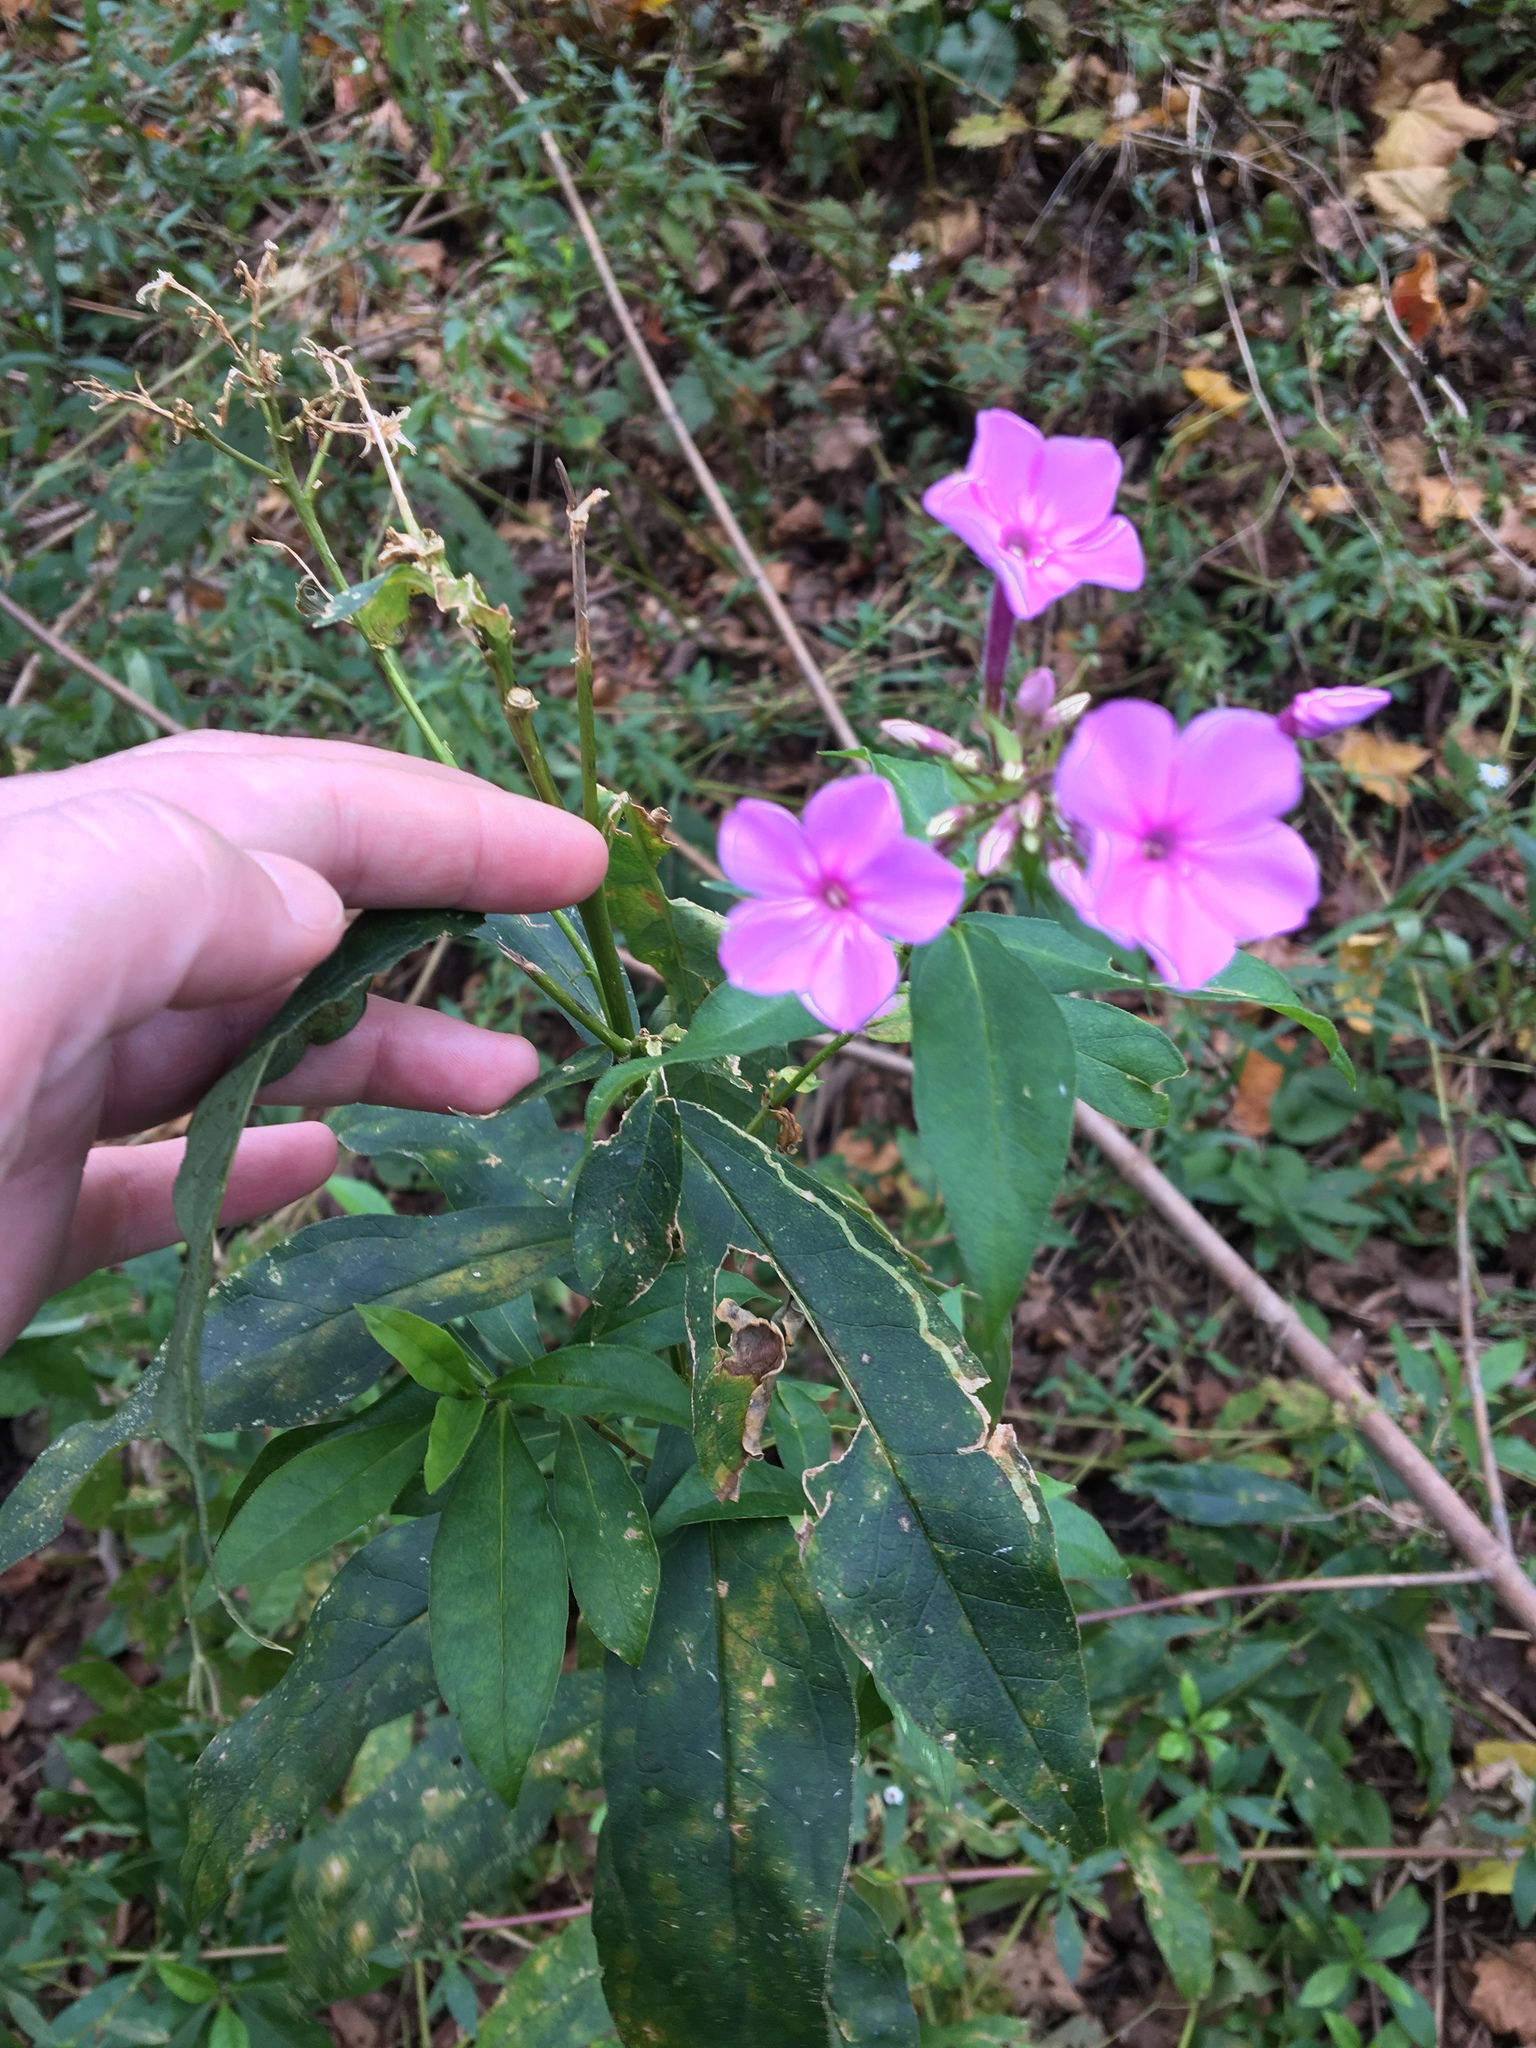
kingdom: Plantae
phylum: Tracheophyta
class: Magnoliopsida
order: Ericales
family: Polemoniaceae
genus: Phlox
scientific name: Phlox paniculata
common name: Fall phlox
